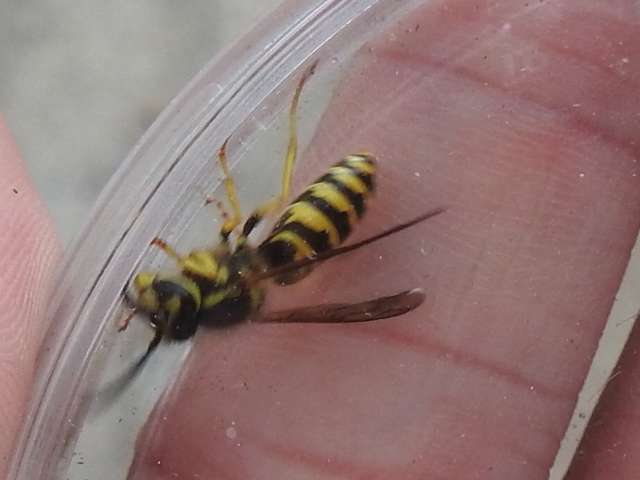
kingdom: Animalia
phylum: Arthropoda
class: Insecta
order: Hymenoptera
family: Vespidae
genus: Vespula
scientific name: Vespula maculifrons
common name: Eastern yellowjacket
